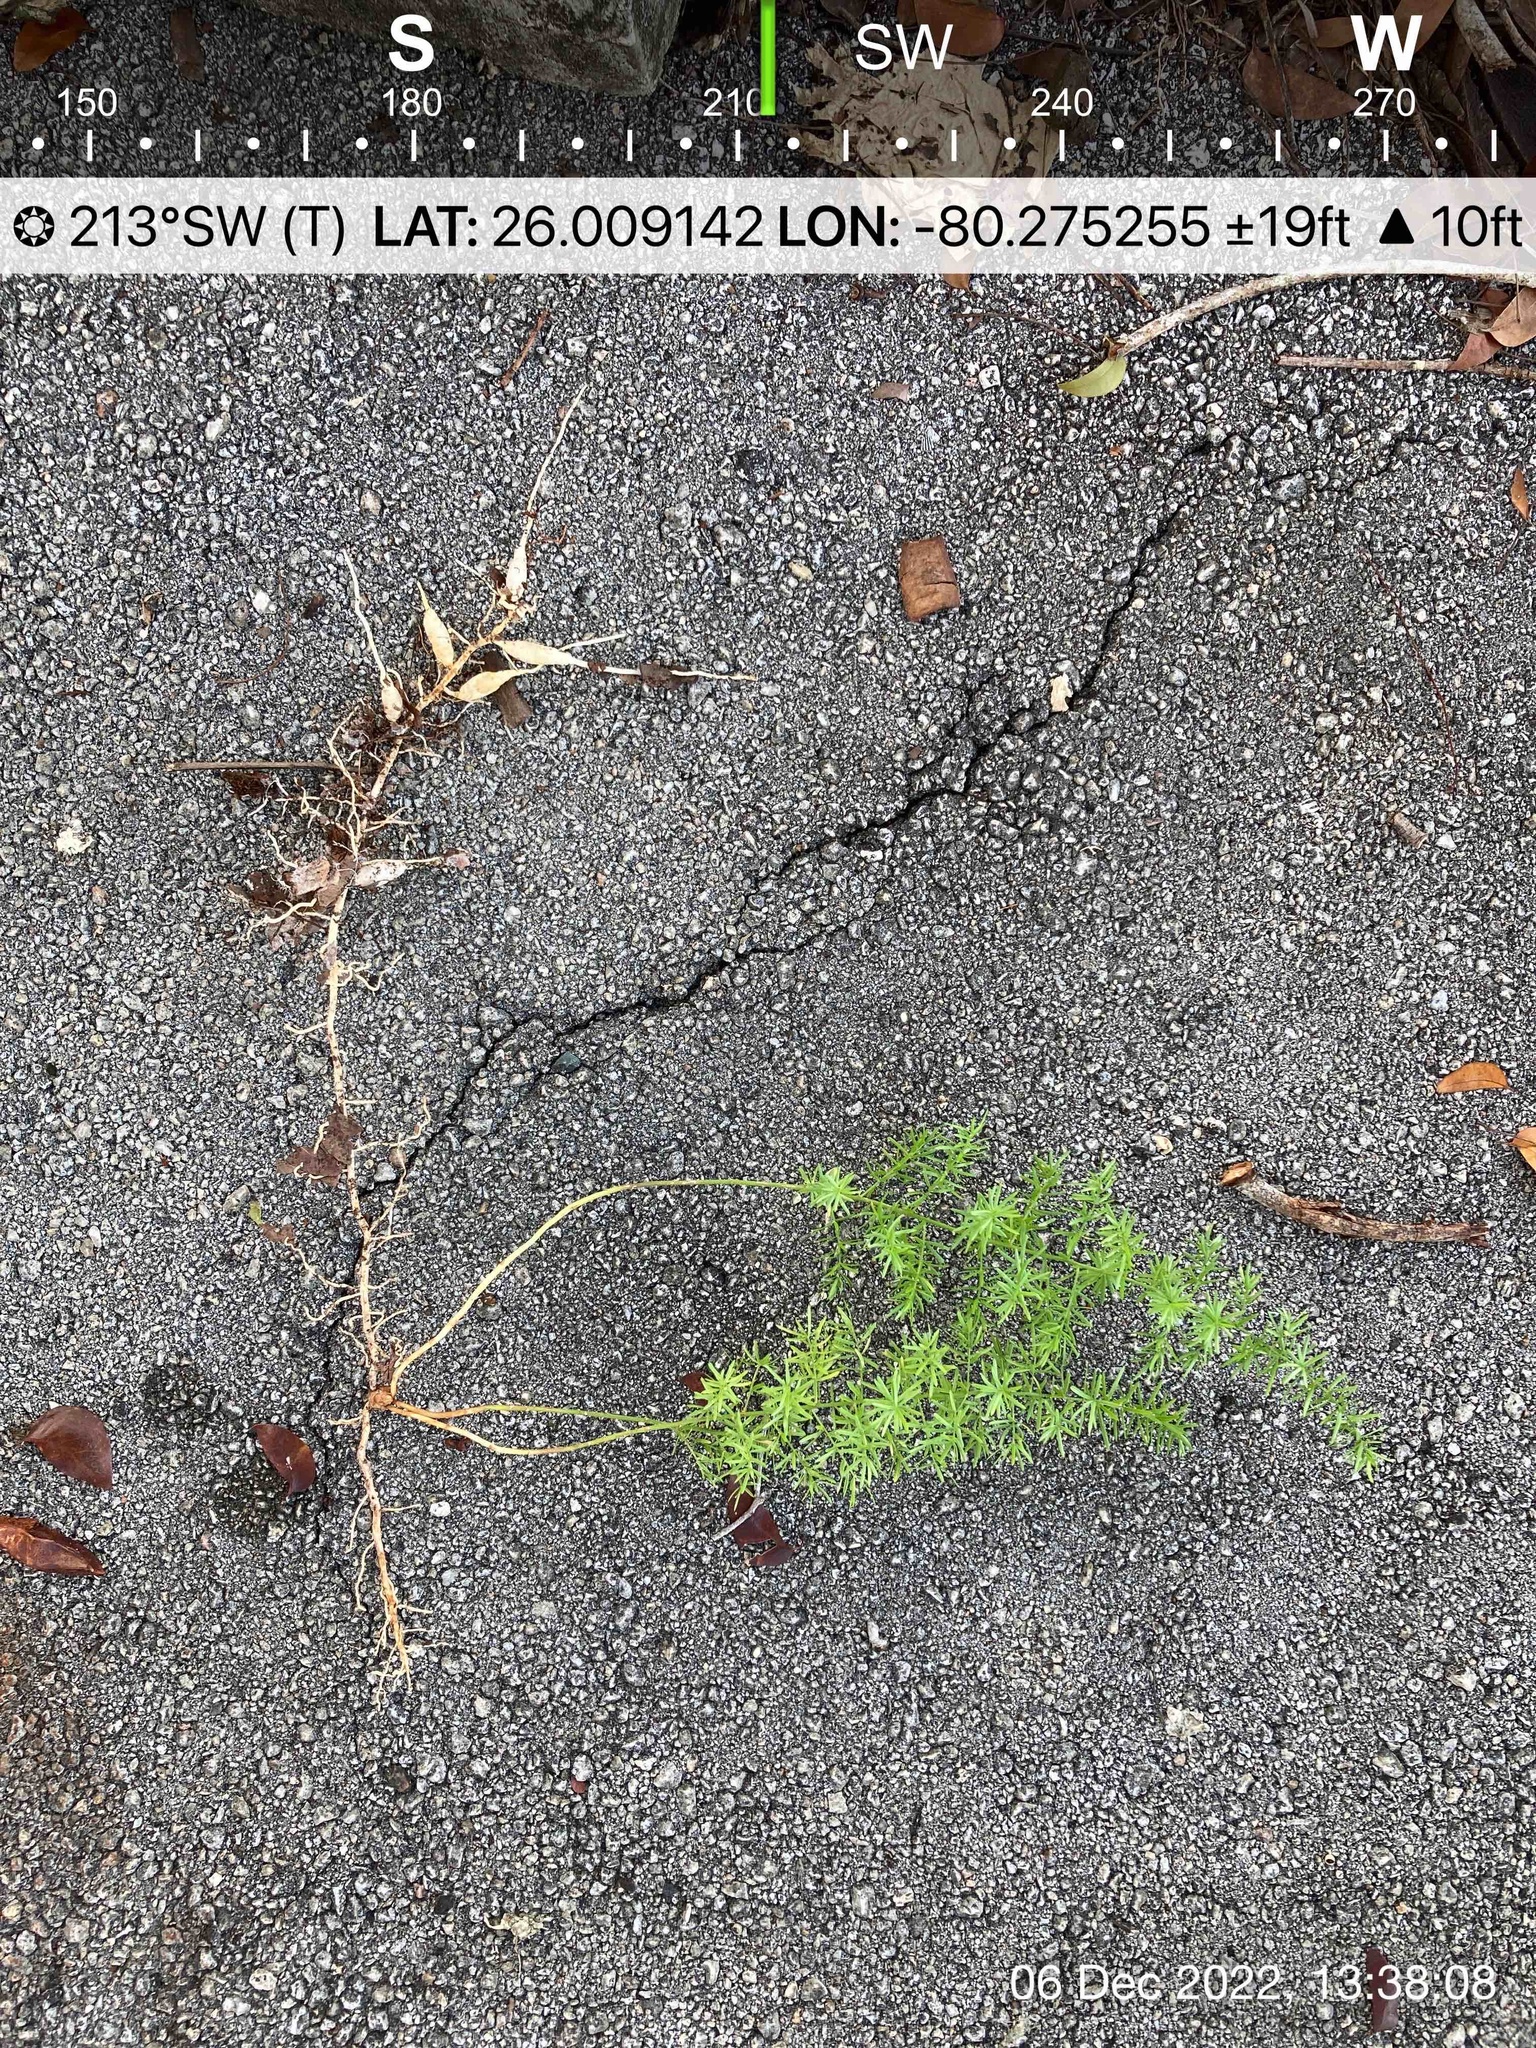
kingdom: Plantae
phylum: Tracheophyta
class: Liliopsida
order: Asparagales
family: Asparagaceae
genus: Asparagus
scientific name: Asparagus aethiopicus
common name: Sprenger's asparagus fern
